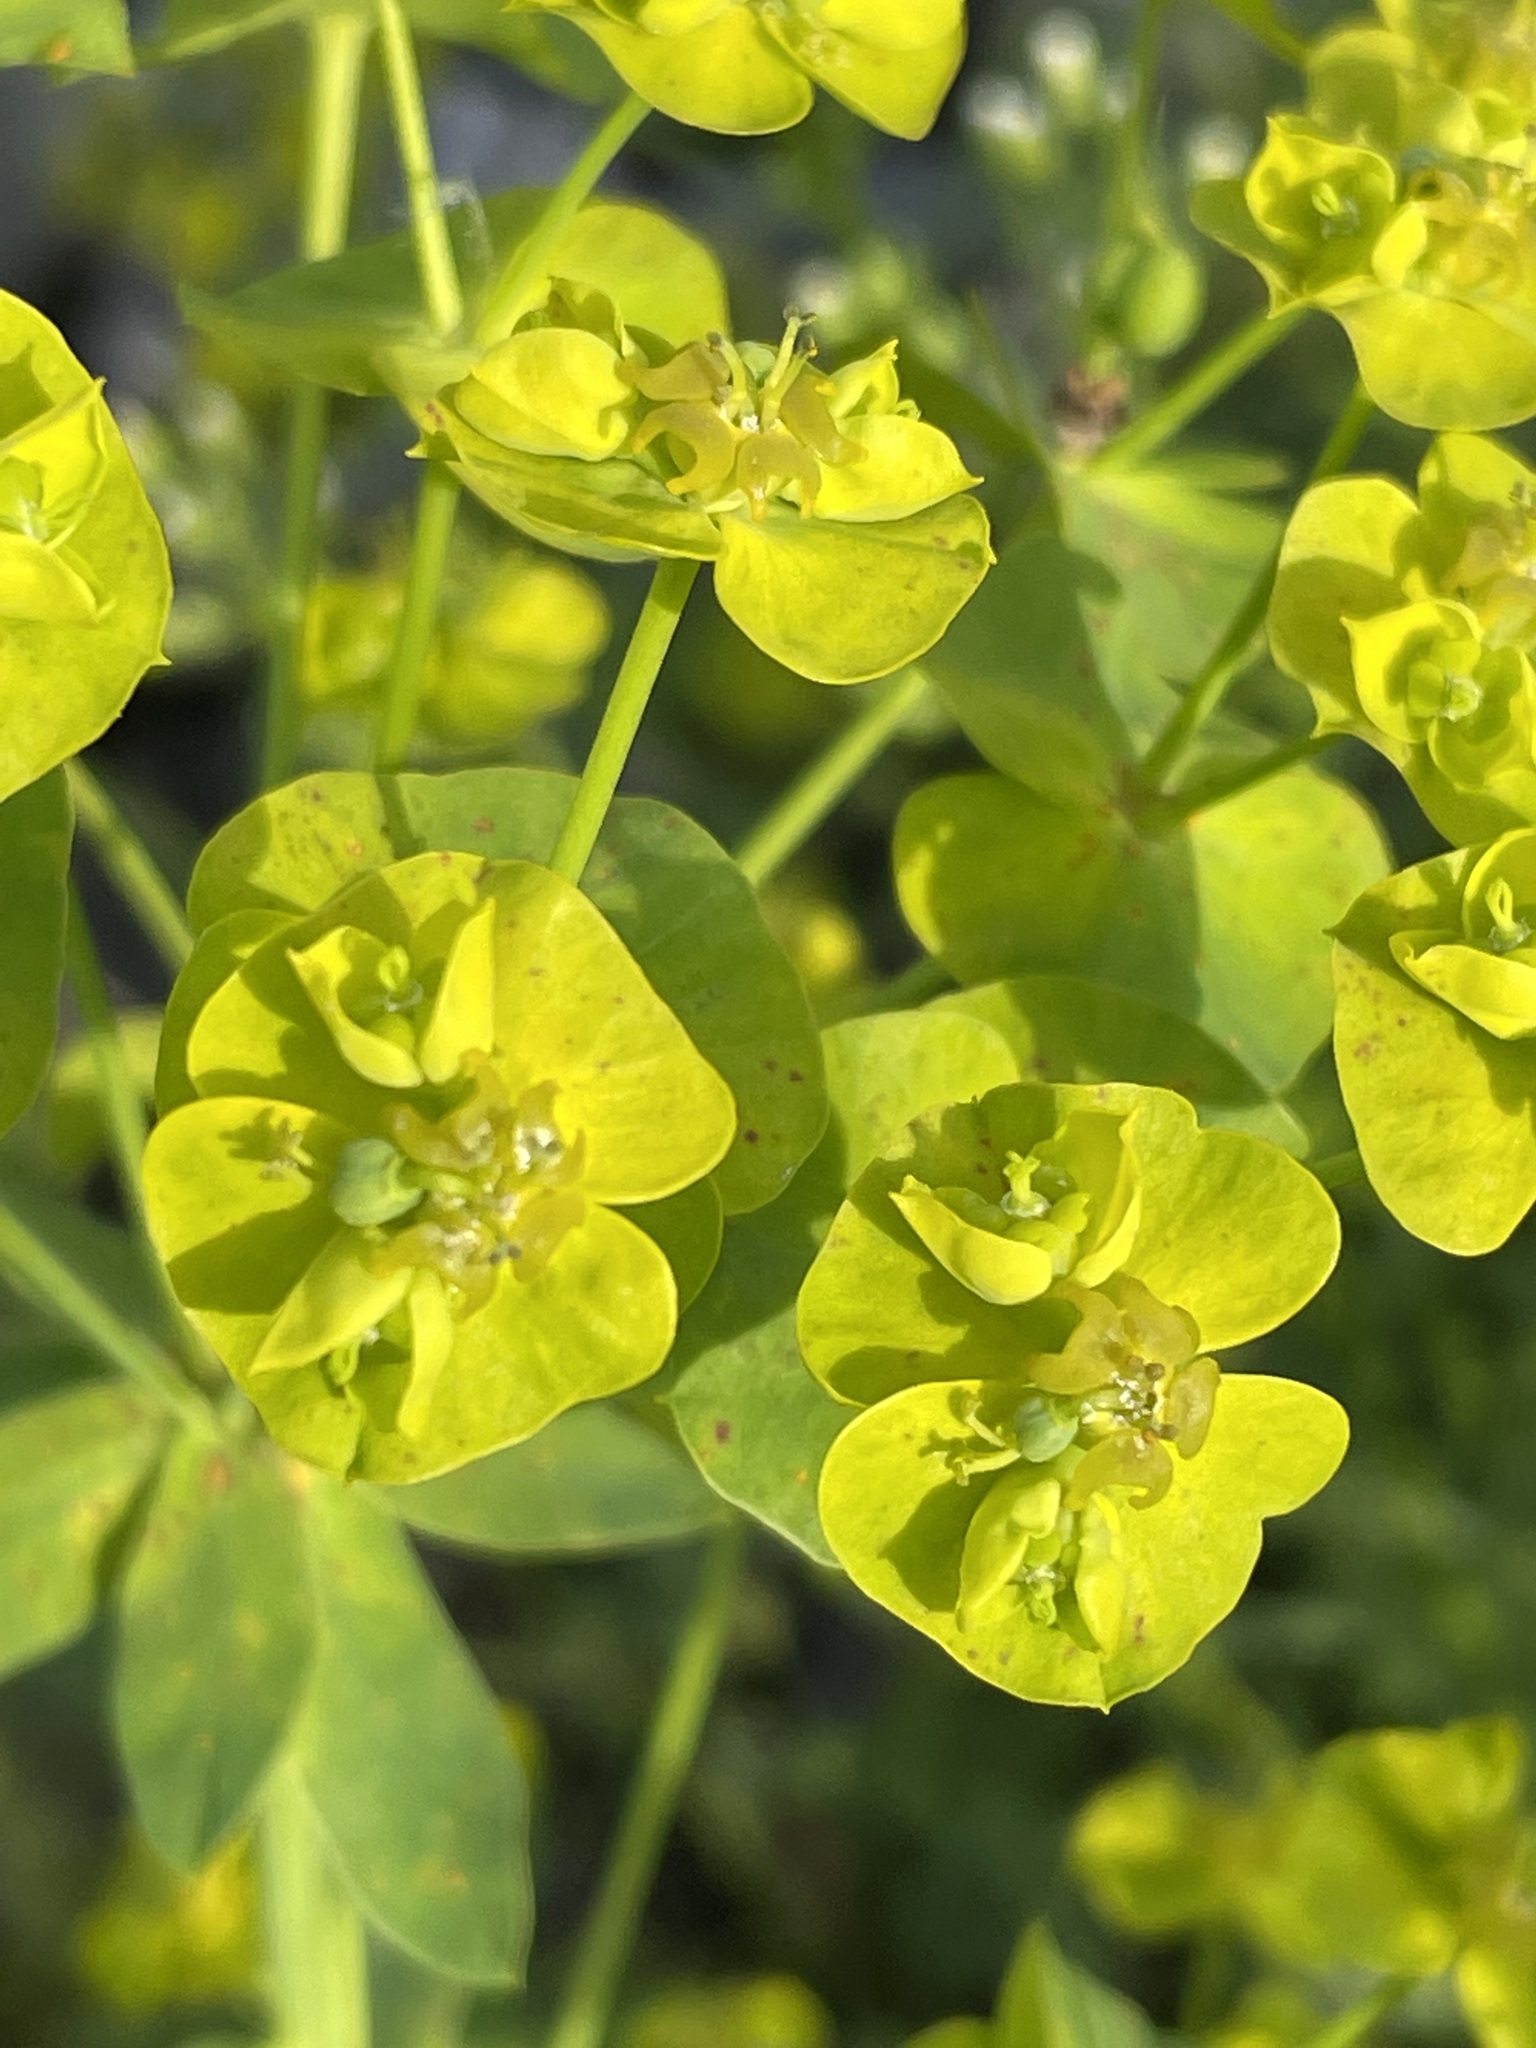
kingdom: Plantae
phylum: Tracheophyta
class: Magnoliopsida
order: Malpighiales
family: Euphorbiaceae
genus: Euphorbia
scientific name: Euphorbia virgata
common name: Leafy spurge
